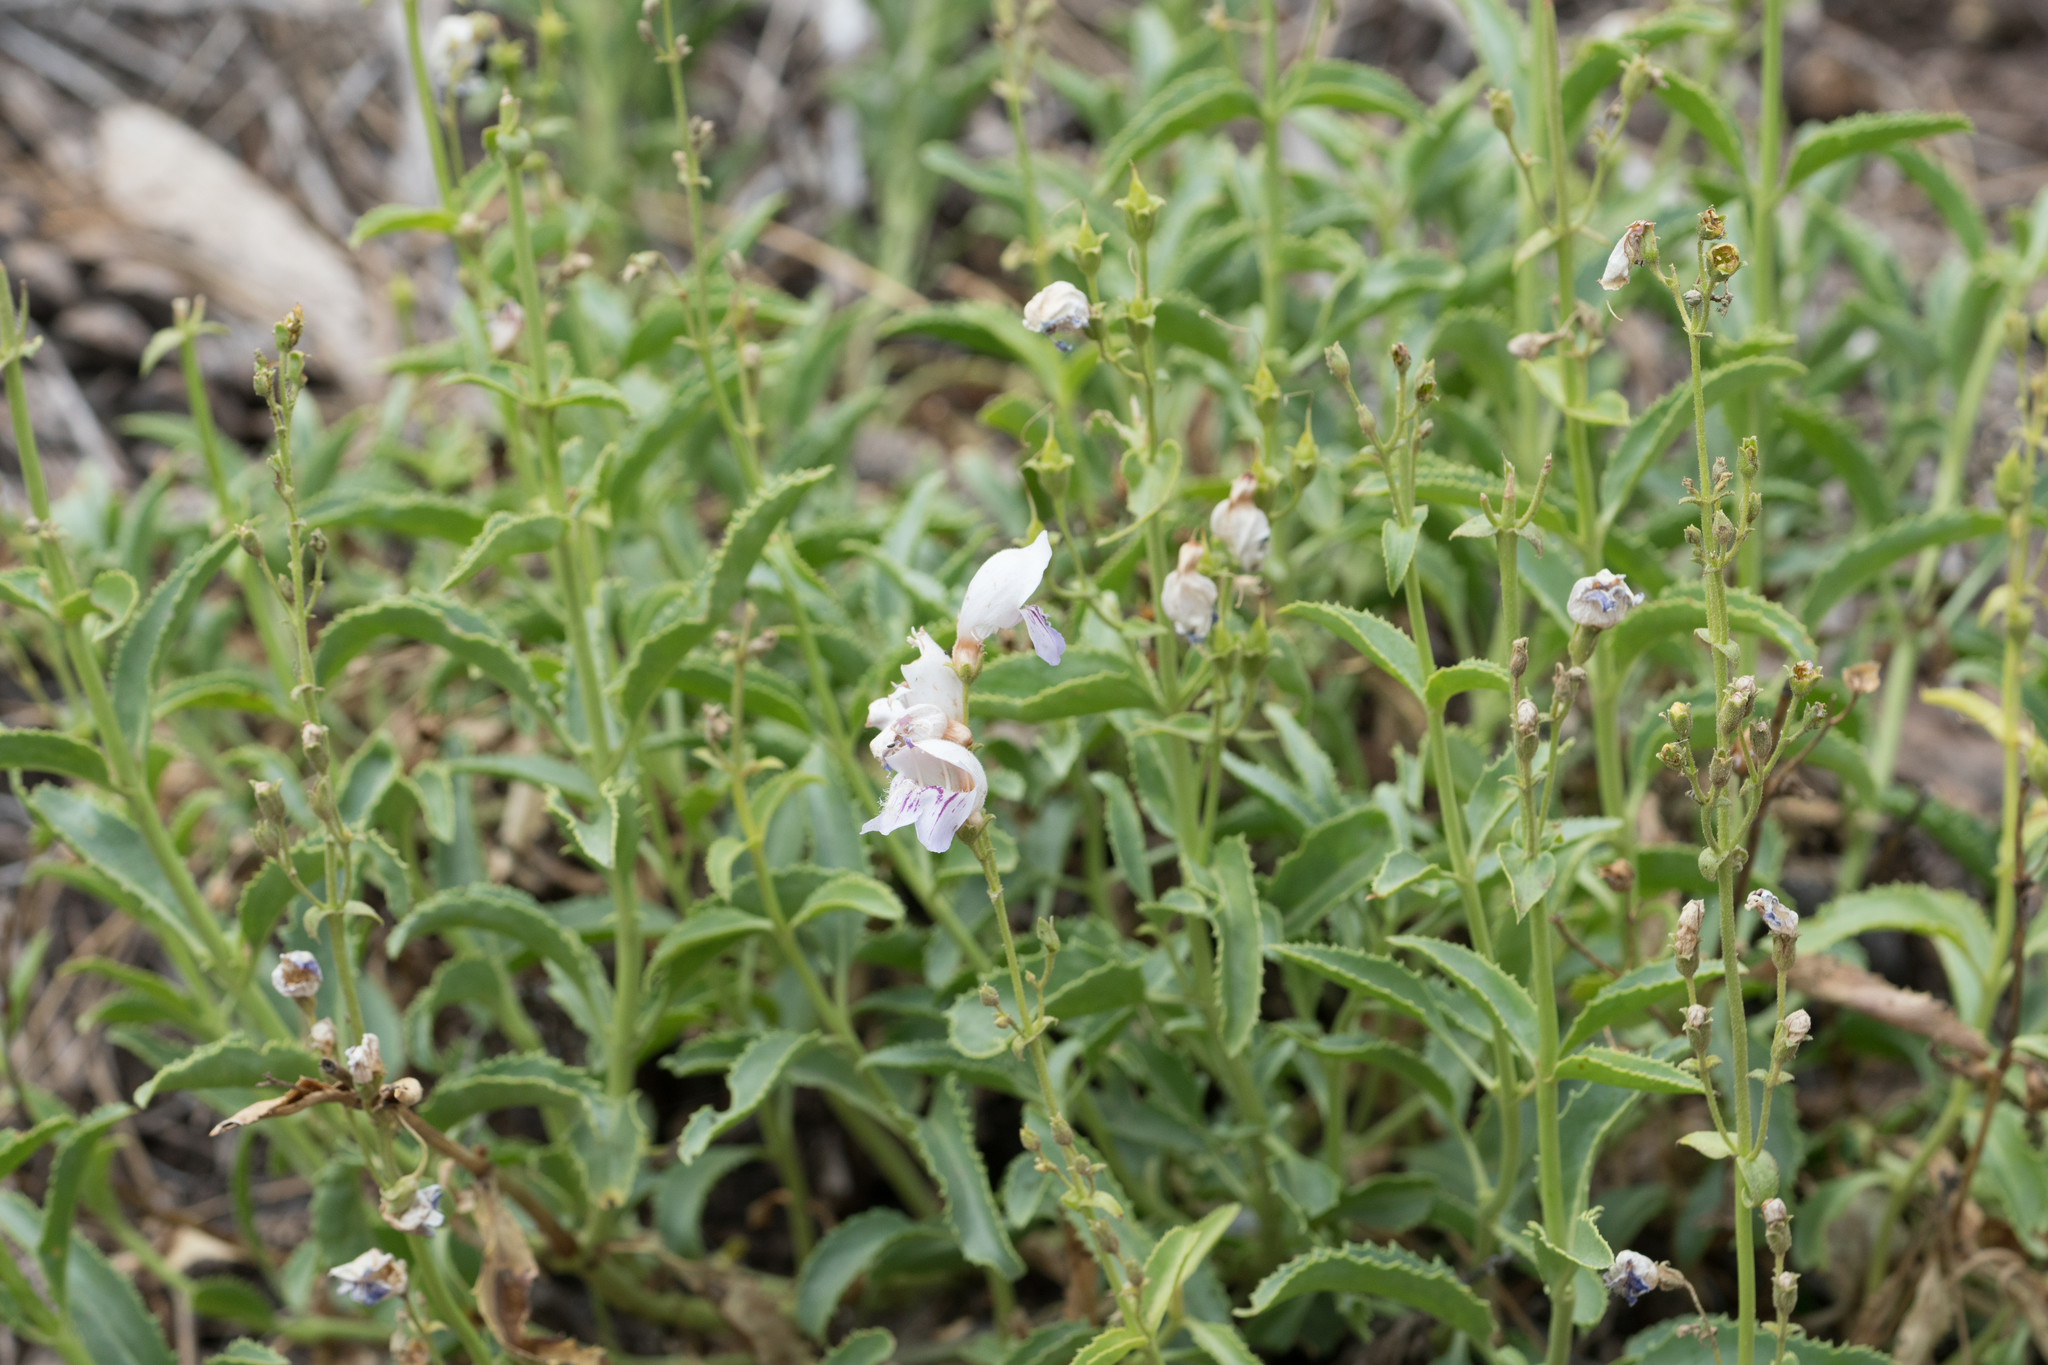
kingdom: Plantae
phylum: Tracheophyta
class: Magnoliopsida
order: Lamiales
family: Plantaginaceae
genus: Penstemon
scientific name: Penstemon grinnellii
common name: Grinnell's beardtongue
